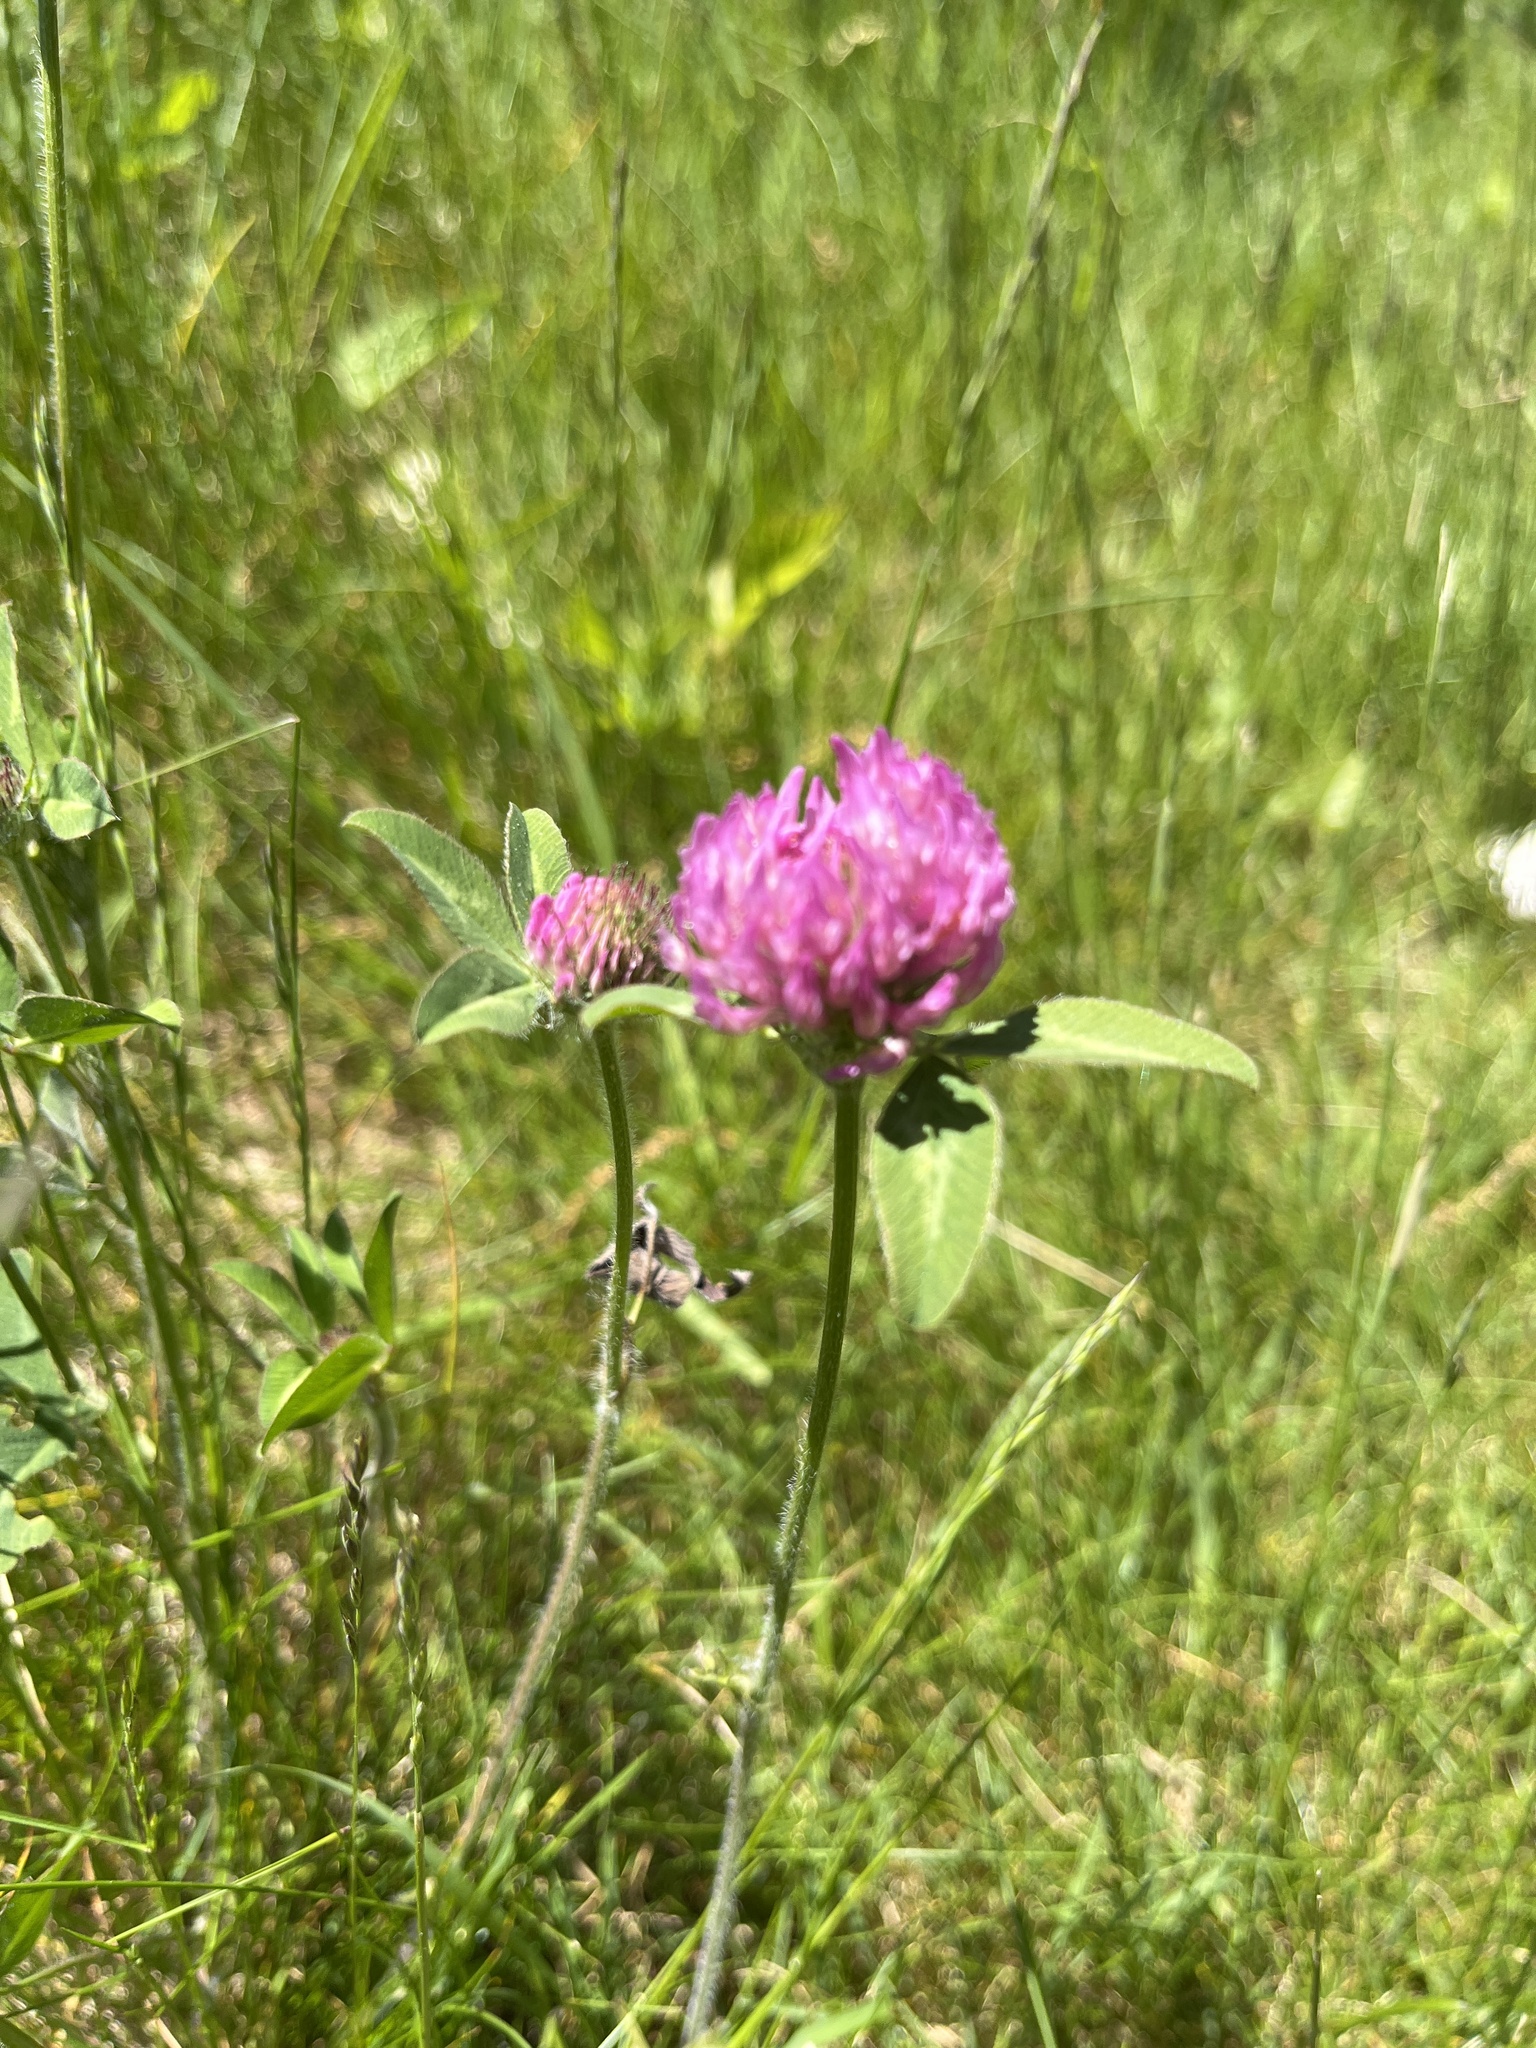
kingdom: Plantae
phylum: Tracheophyta
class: Magnoliopsida
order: Fabales
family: Fabaceae
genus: Trifolium
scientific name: Trifolium pratense
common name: Red clover
